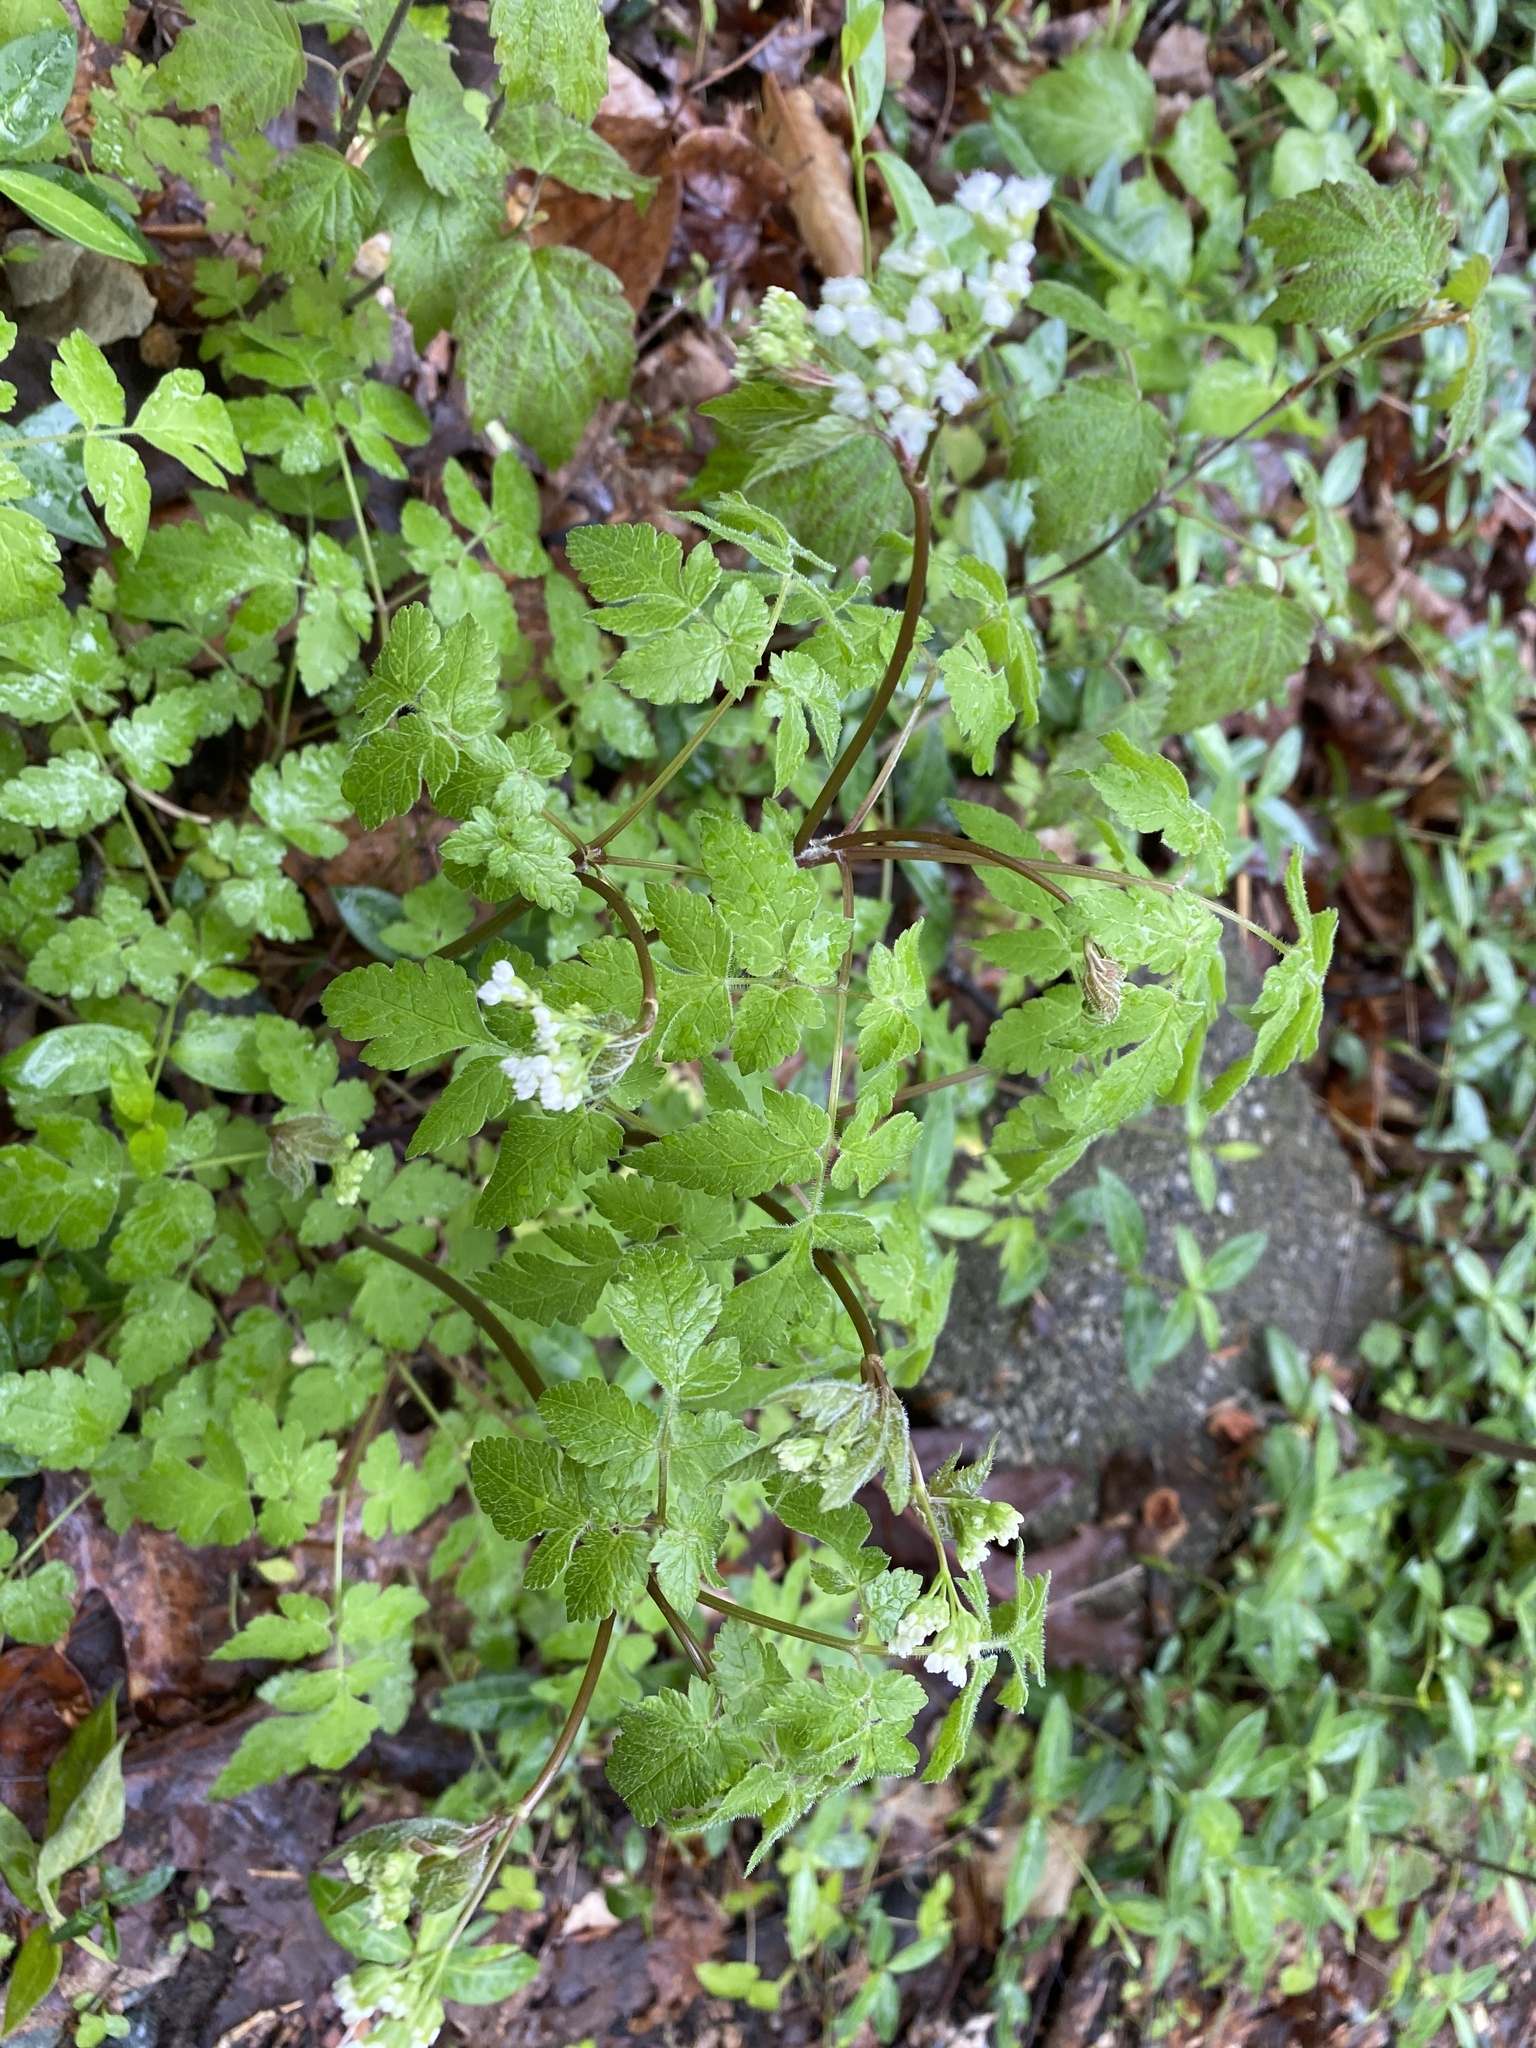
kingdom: Plantae
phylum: Tracheophyta
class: Magnoliopsida
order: Apiales
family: Apiaceae
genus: Osmorhiza
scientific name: Osmorhiza longistylis
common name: Smooth sweet cicely
